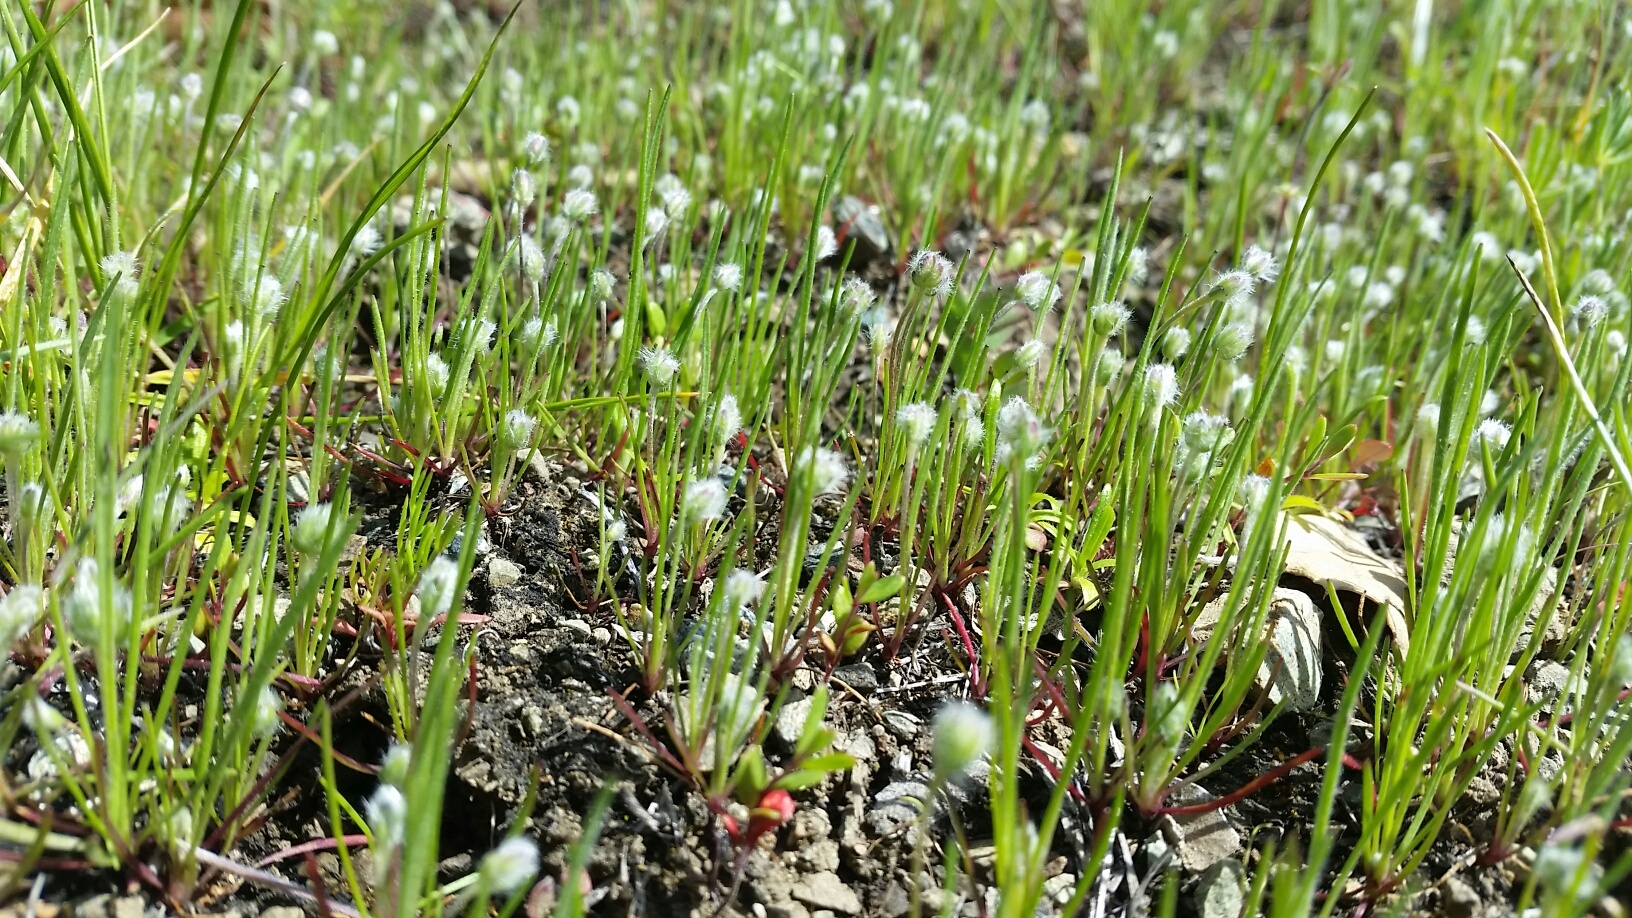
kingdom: Plantae
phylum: Tracheophyta
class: Magnoliopsida
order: Lamiales
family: Plantaginaceae
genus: Plantago
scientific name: Plantago erecta
